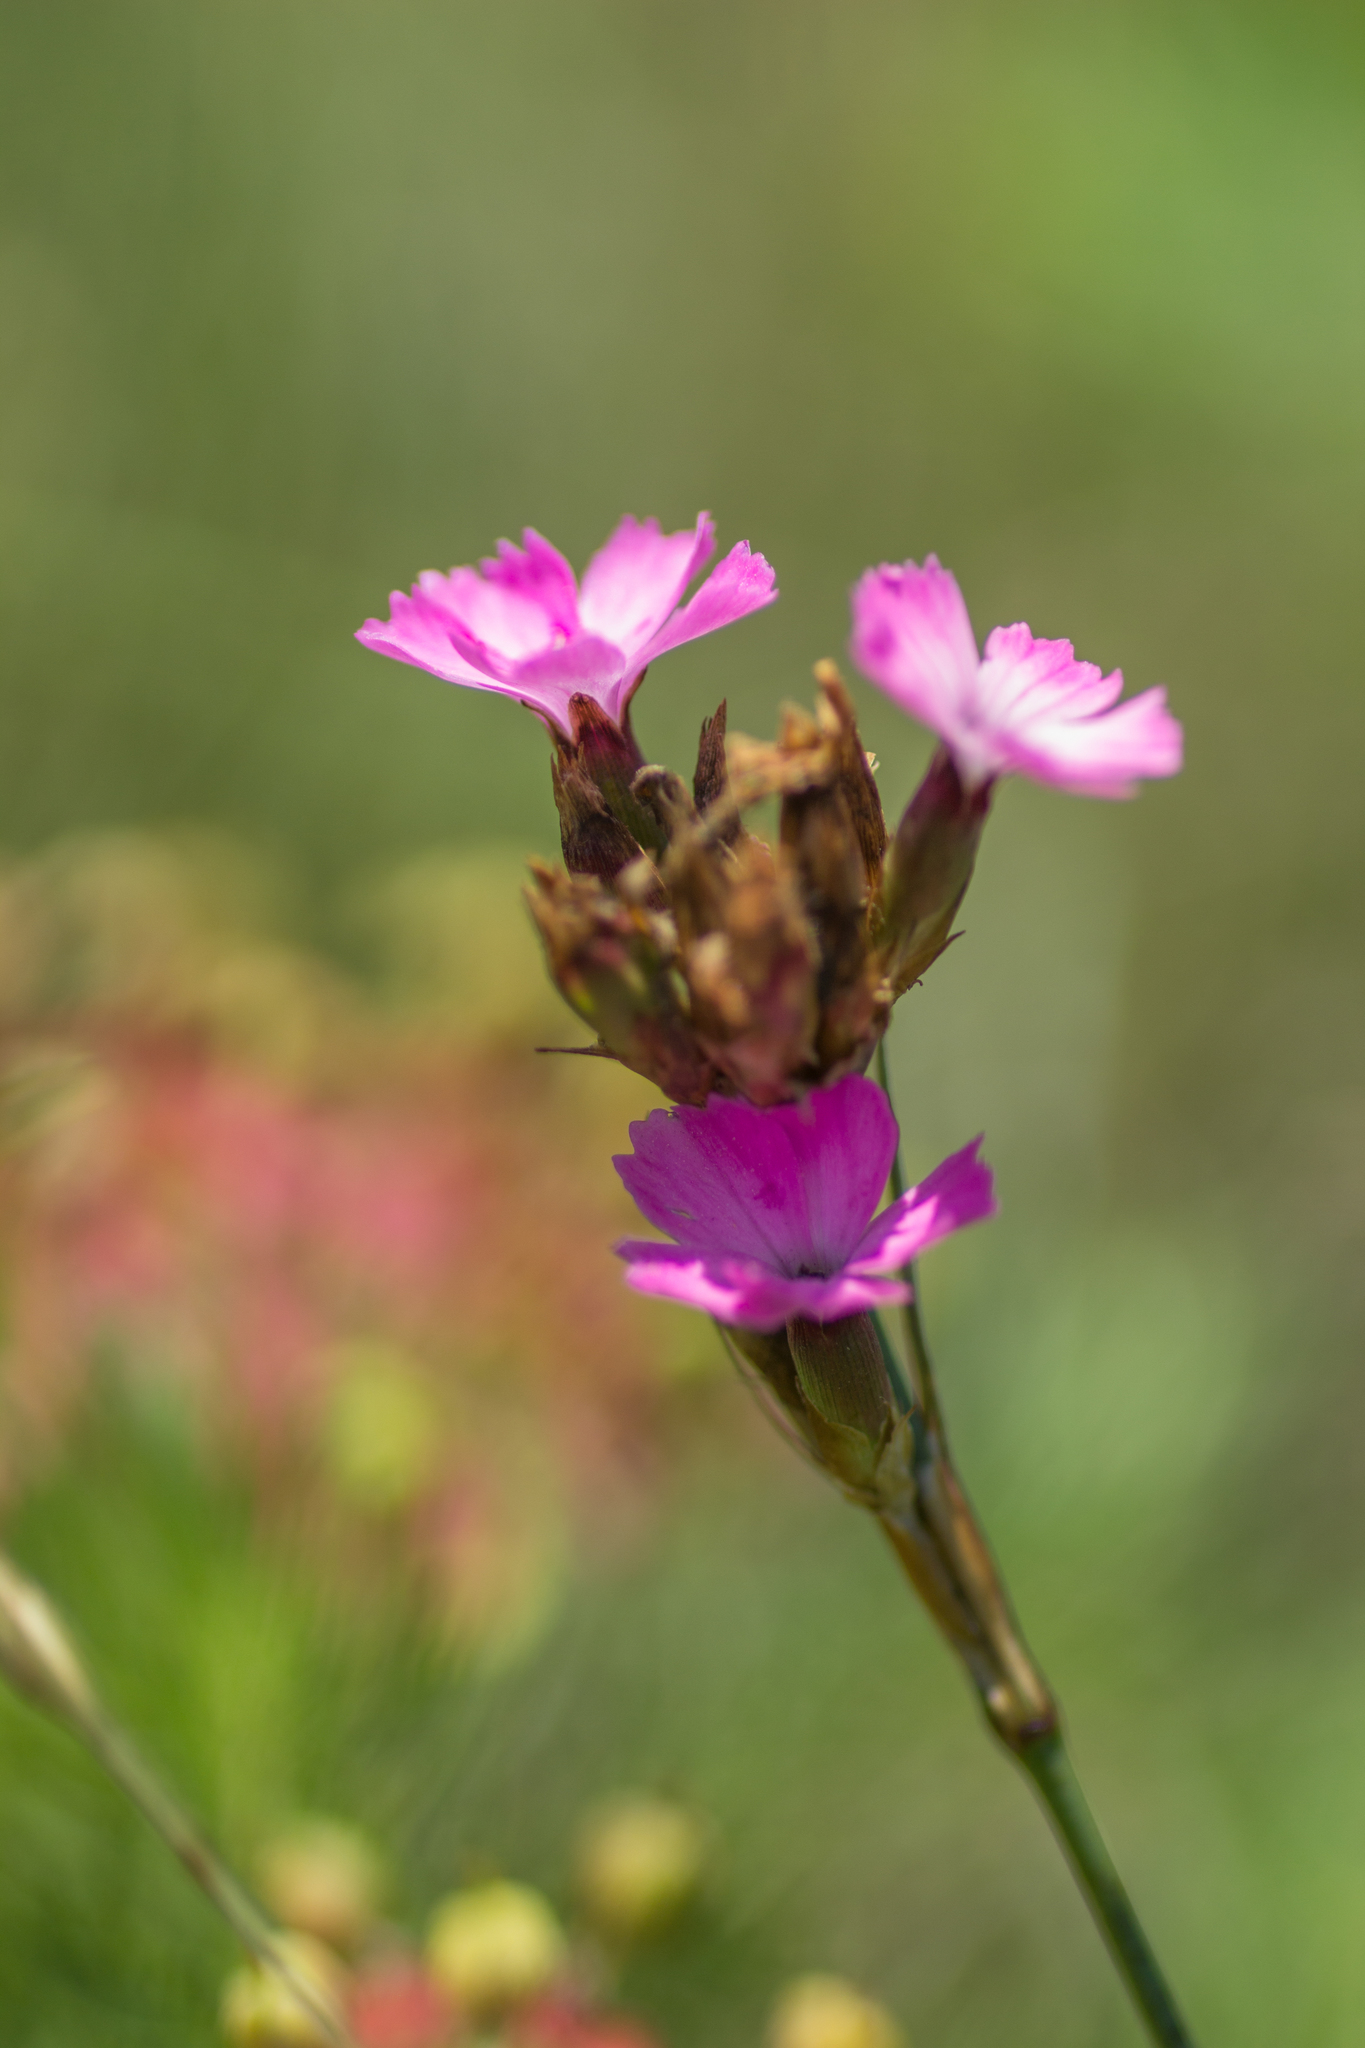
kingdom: Plantae
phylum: Tracheophyta
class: Magnoliopsida
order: Caryophyllales
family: Caryophyllaceae
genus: Dianthus
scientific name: Dianthus pontederae
